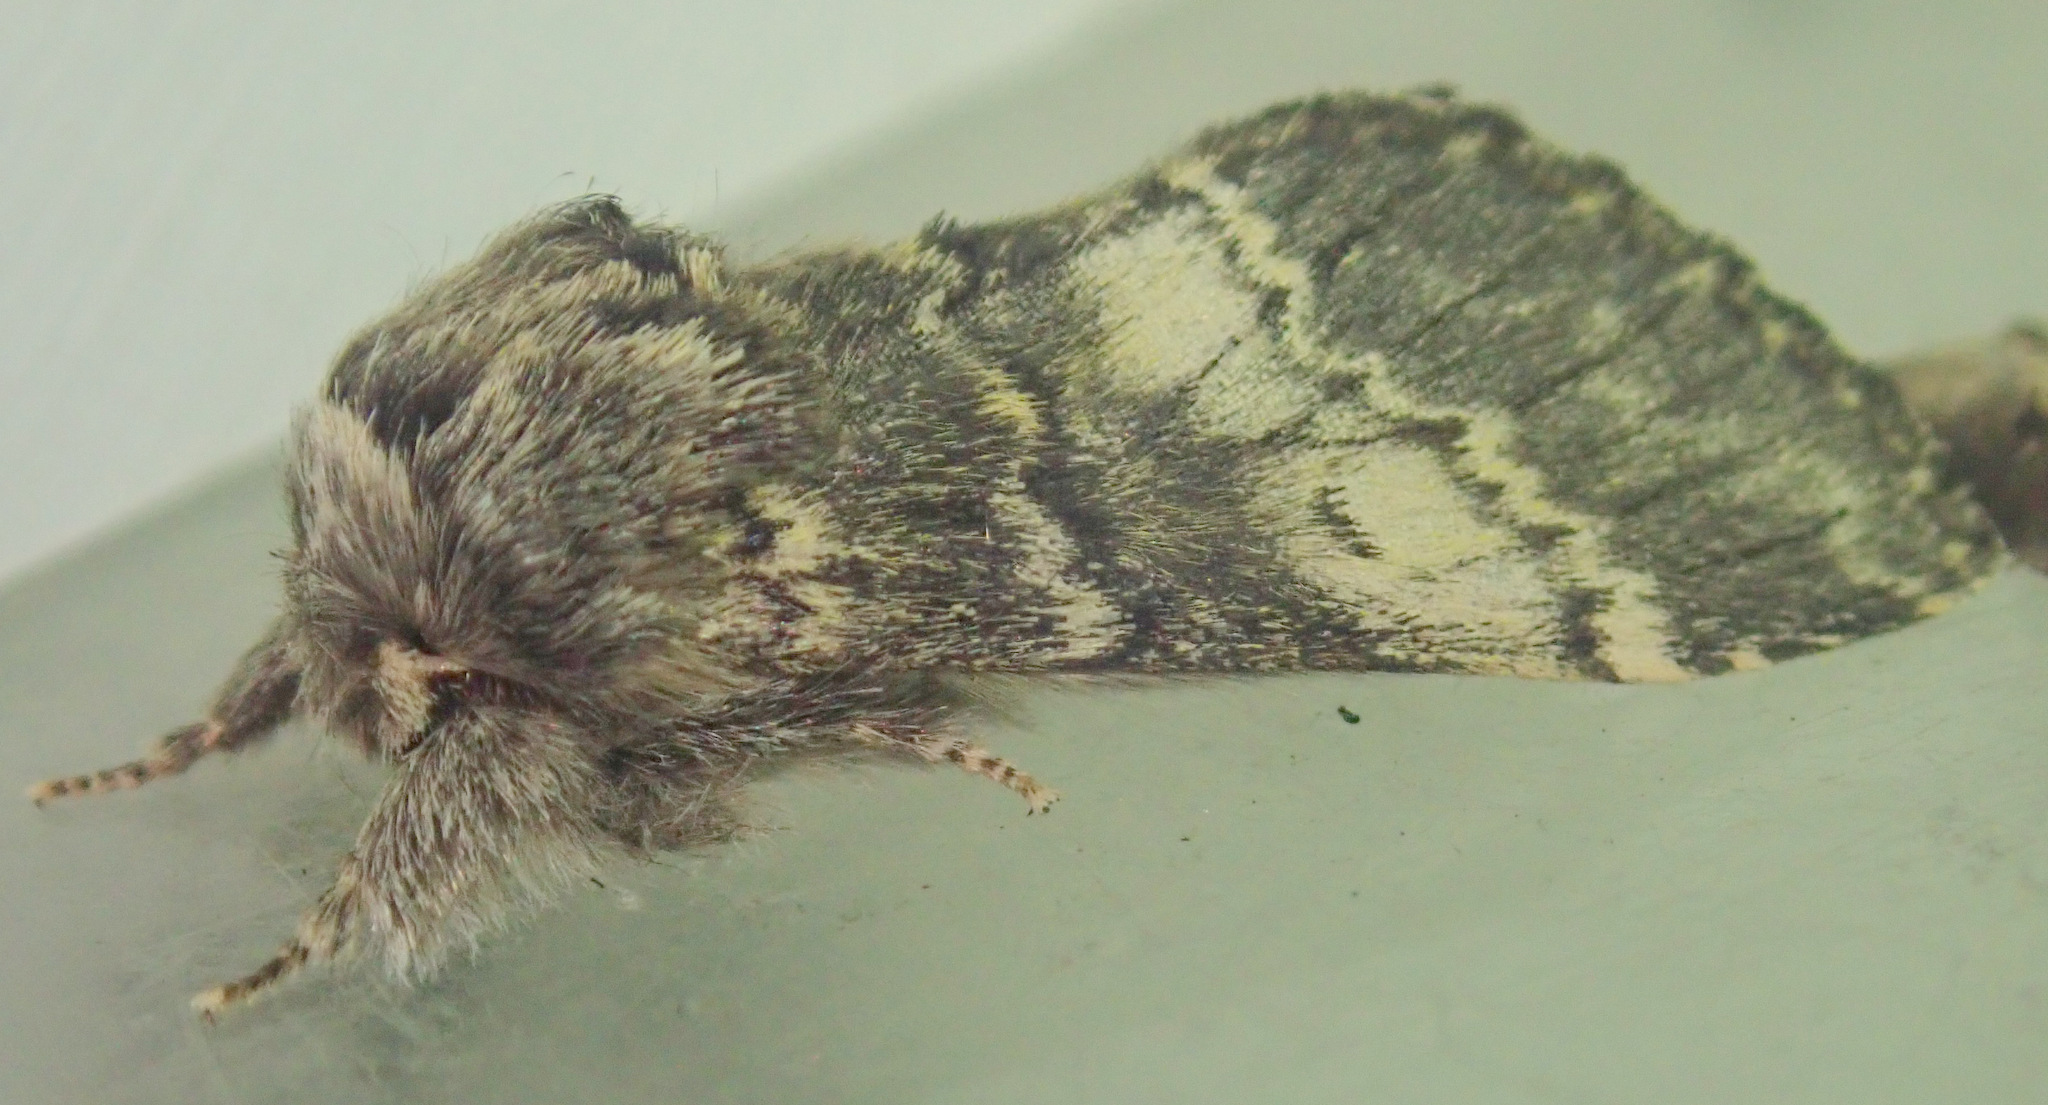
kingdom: Animalia
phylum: Arthropoda
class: Insecta
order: Lepidoptera
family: Notodontidae
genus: Drymonia
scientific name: Drymonia ruficornis
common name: Lunar marbled brown
